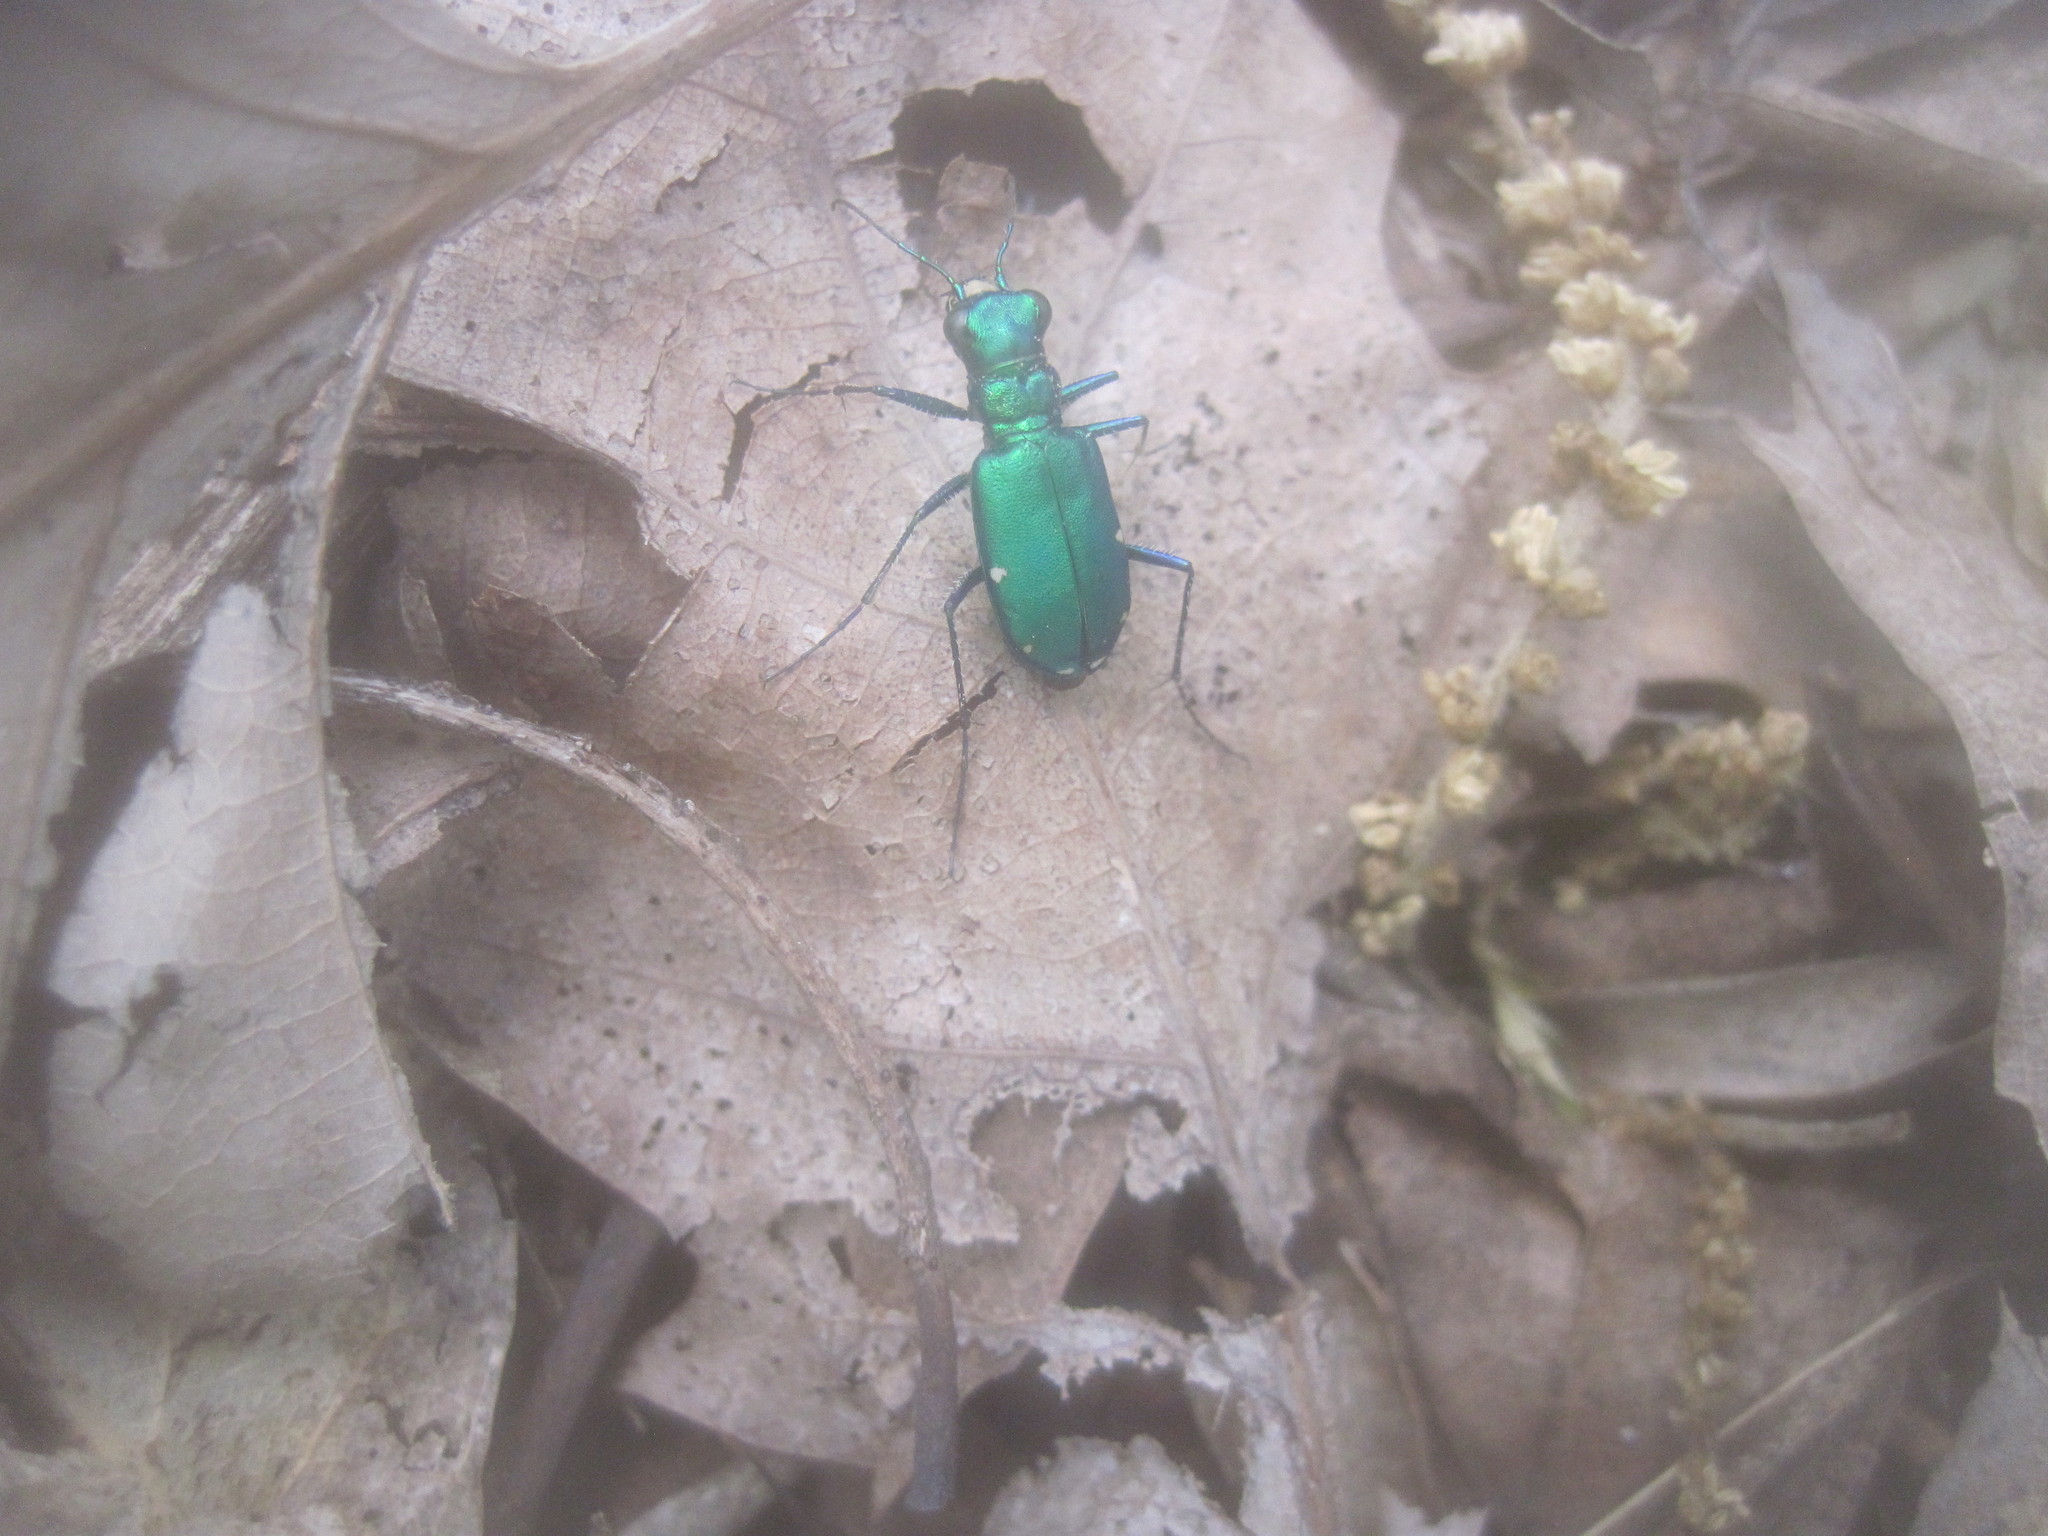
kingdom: Animalia
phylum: Arthropoda
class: Insecta
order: Coleoptera
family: Carabidae
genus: Cicindela
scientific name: Cicindela sexguttata
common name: Six-spotted tiger beetle
